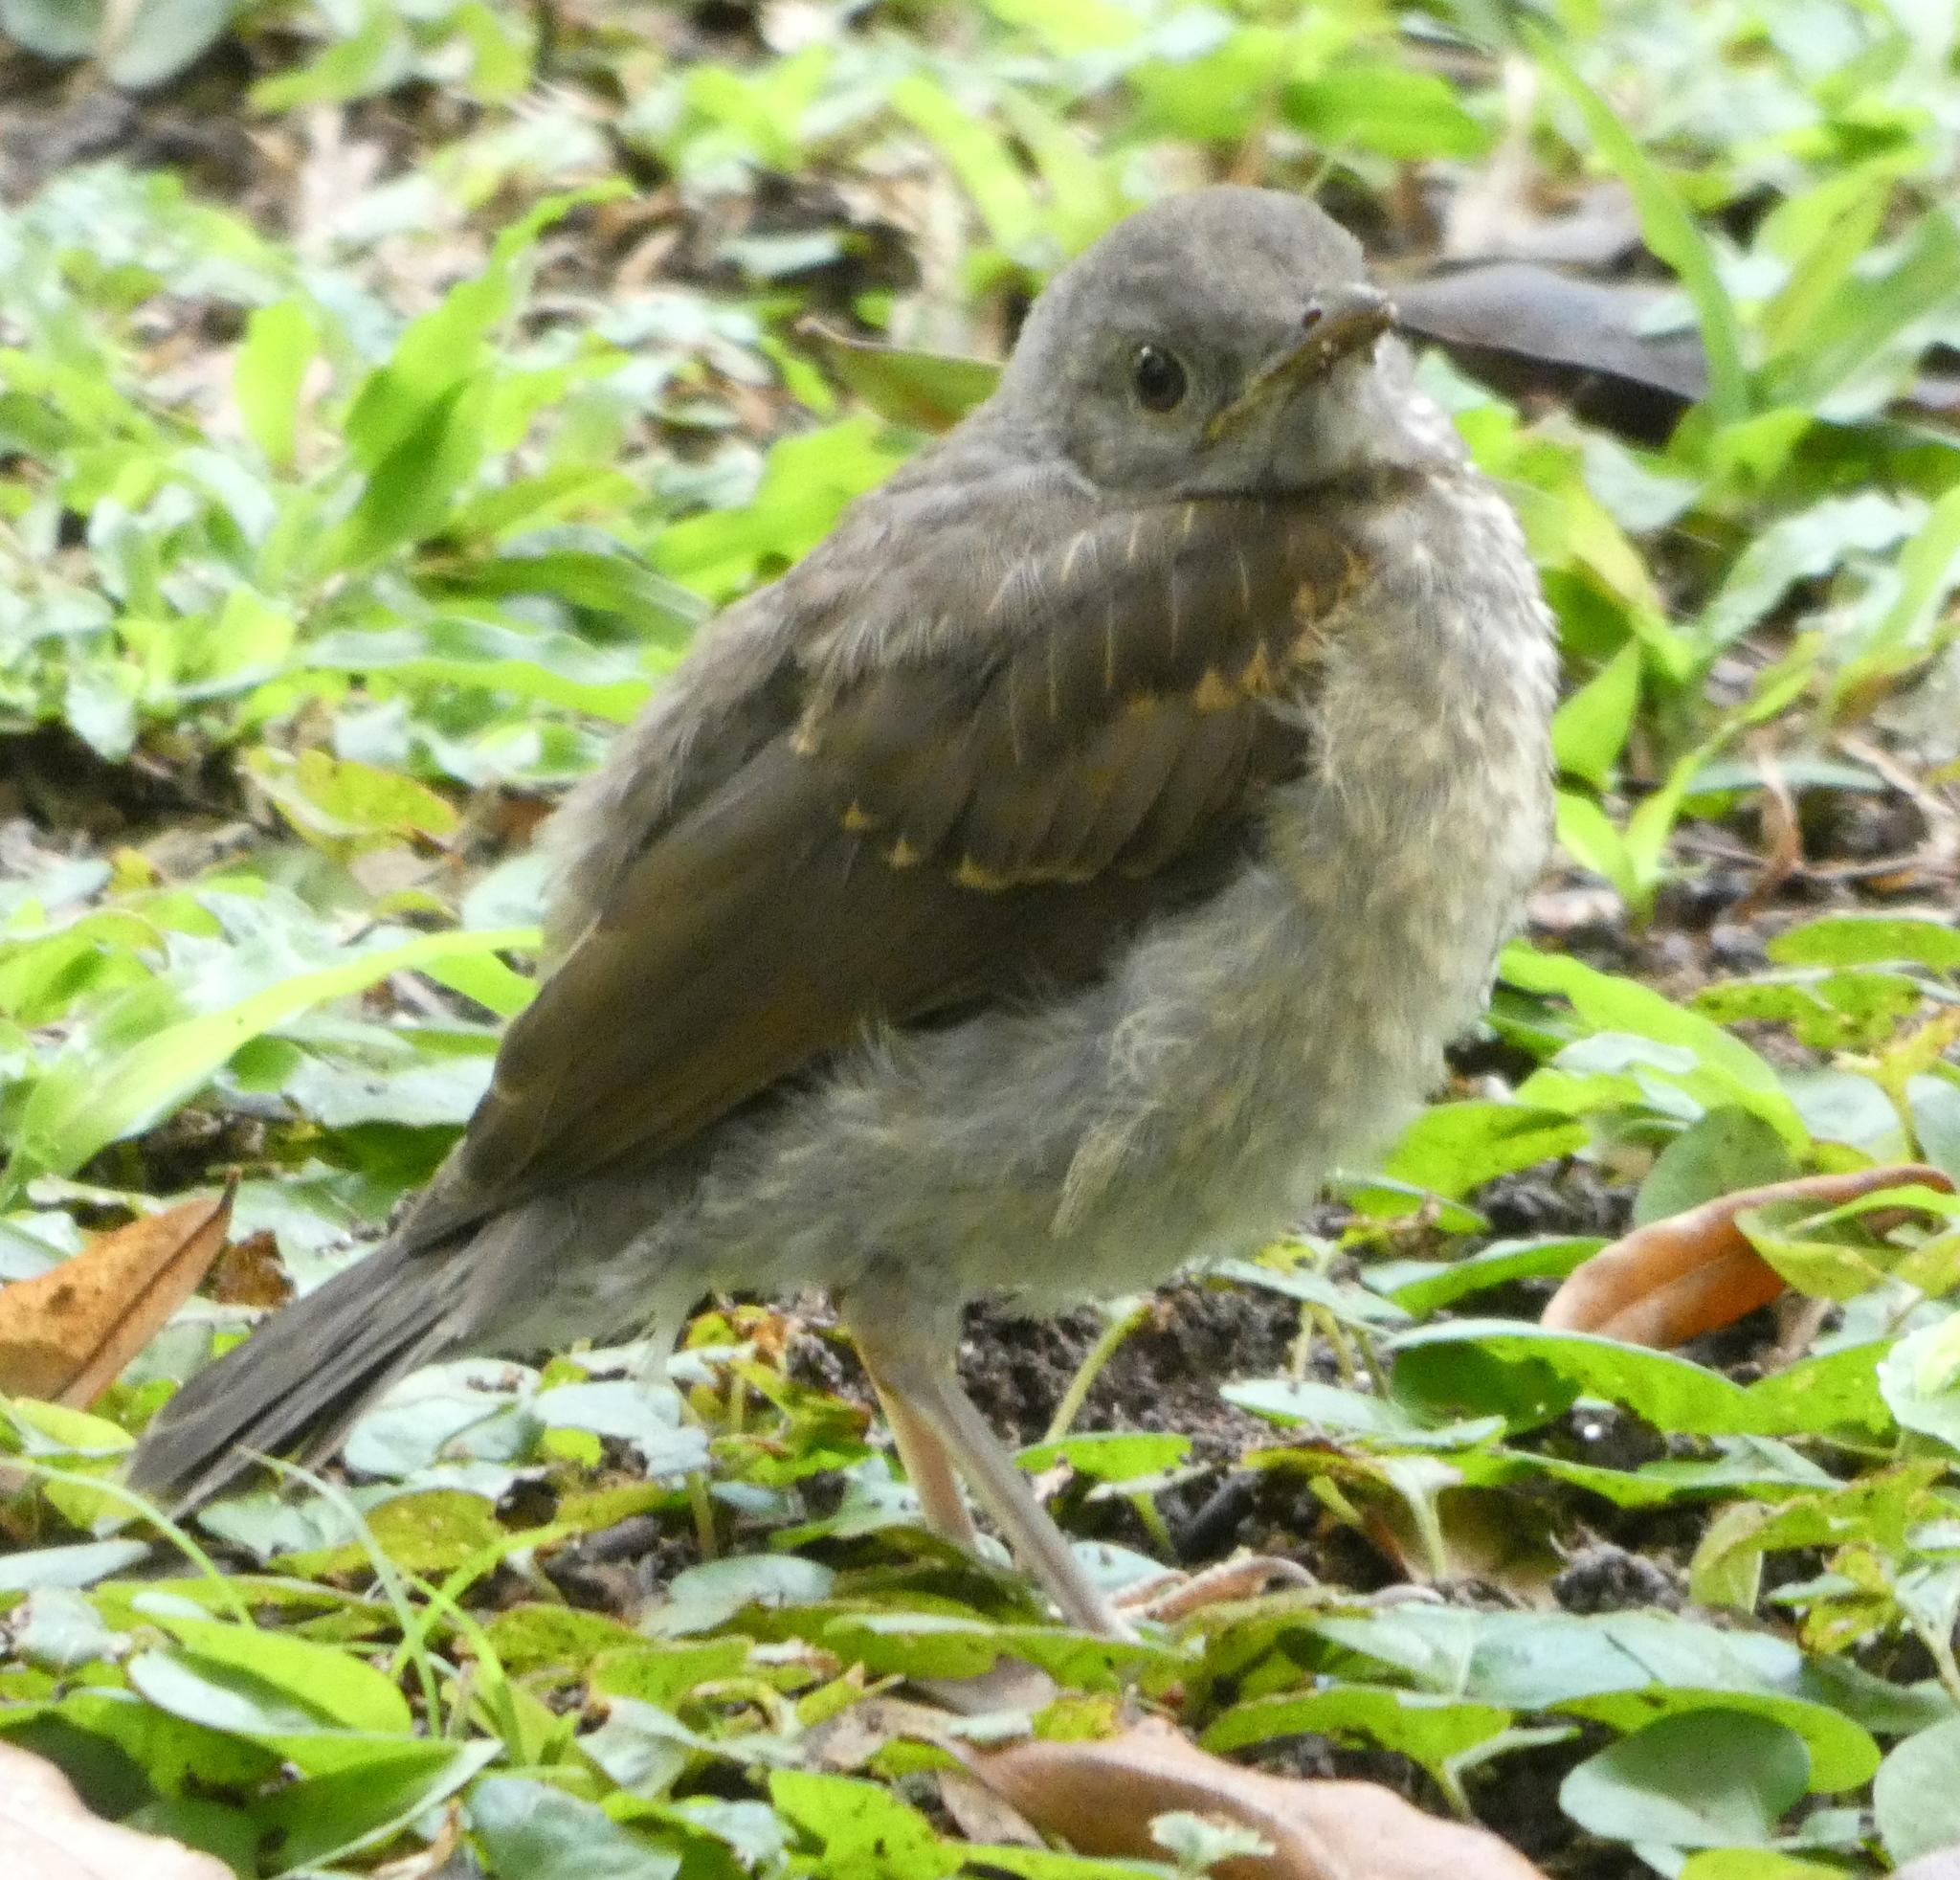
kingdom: Animalia
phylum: Chordata
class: Aves
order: Passeriformes
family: Turdidae
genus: Turdus
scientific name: Turdus leucomelas
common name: Pale-breasted thrush
